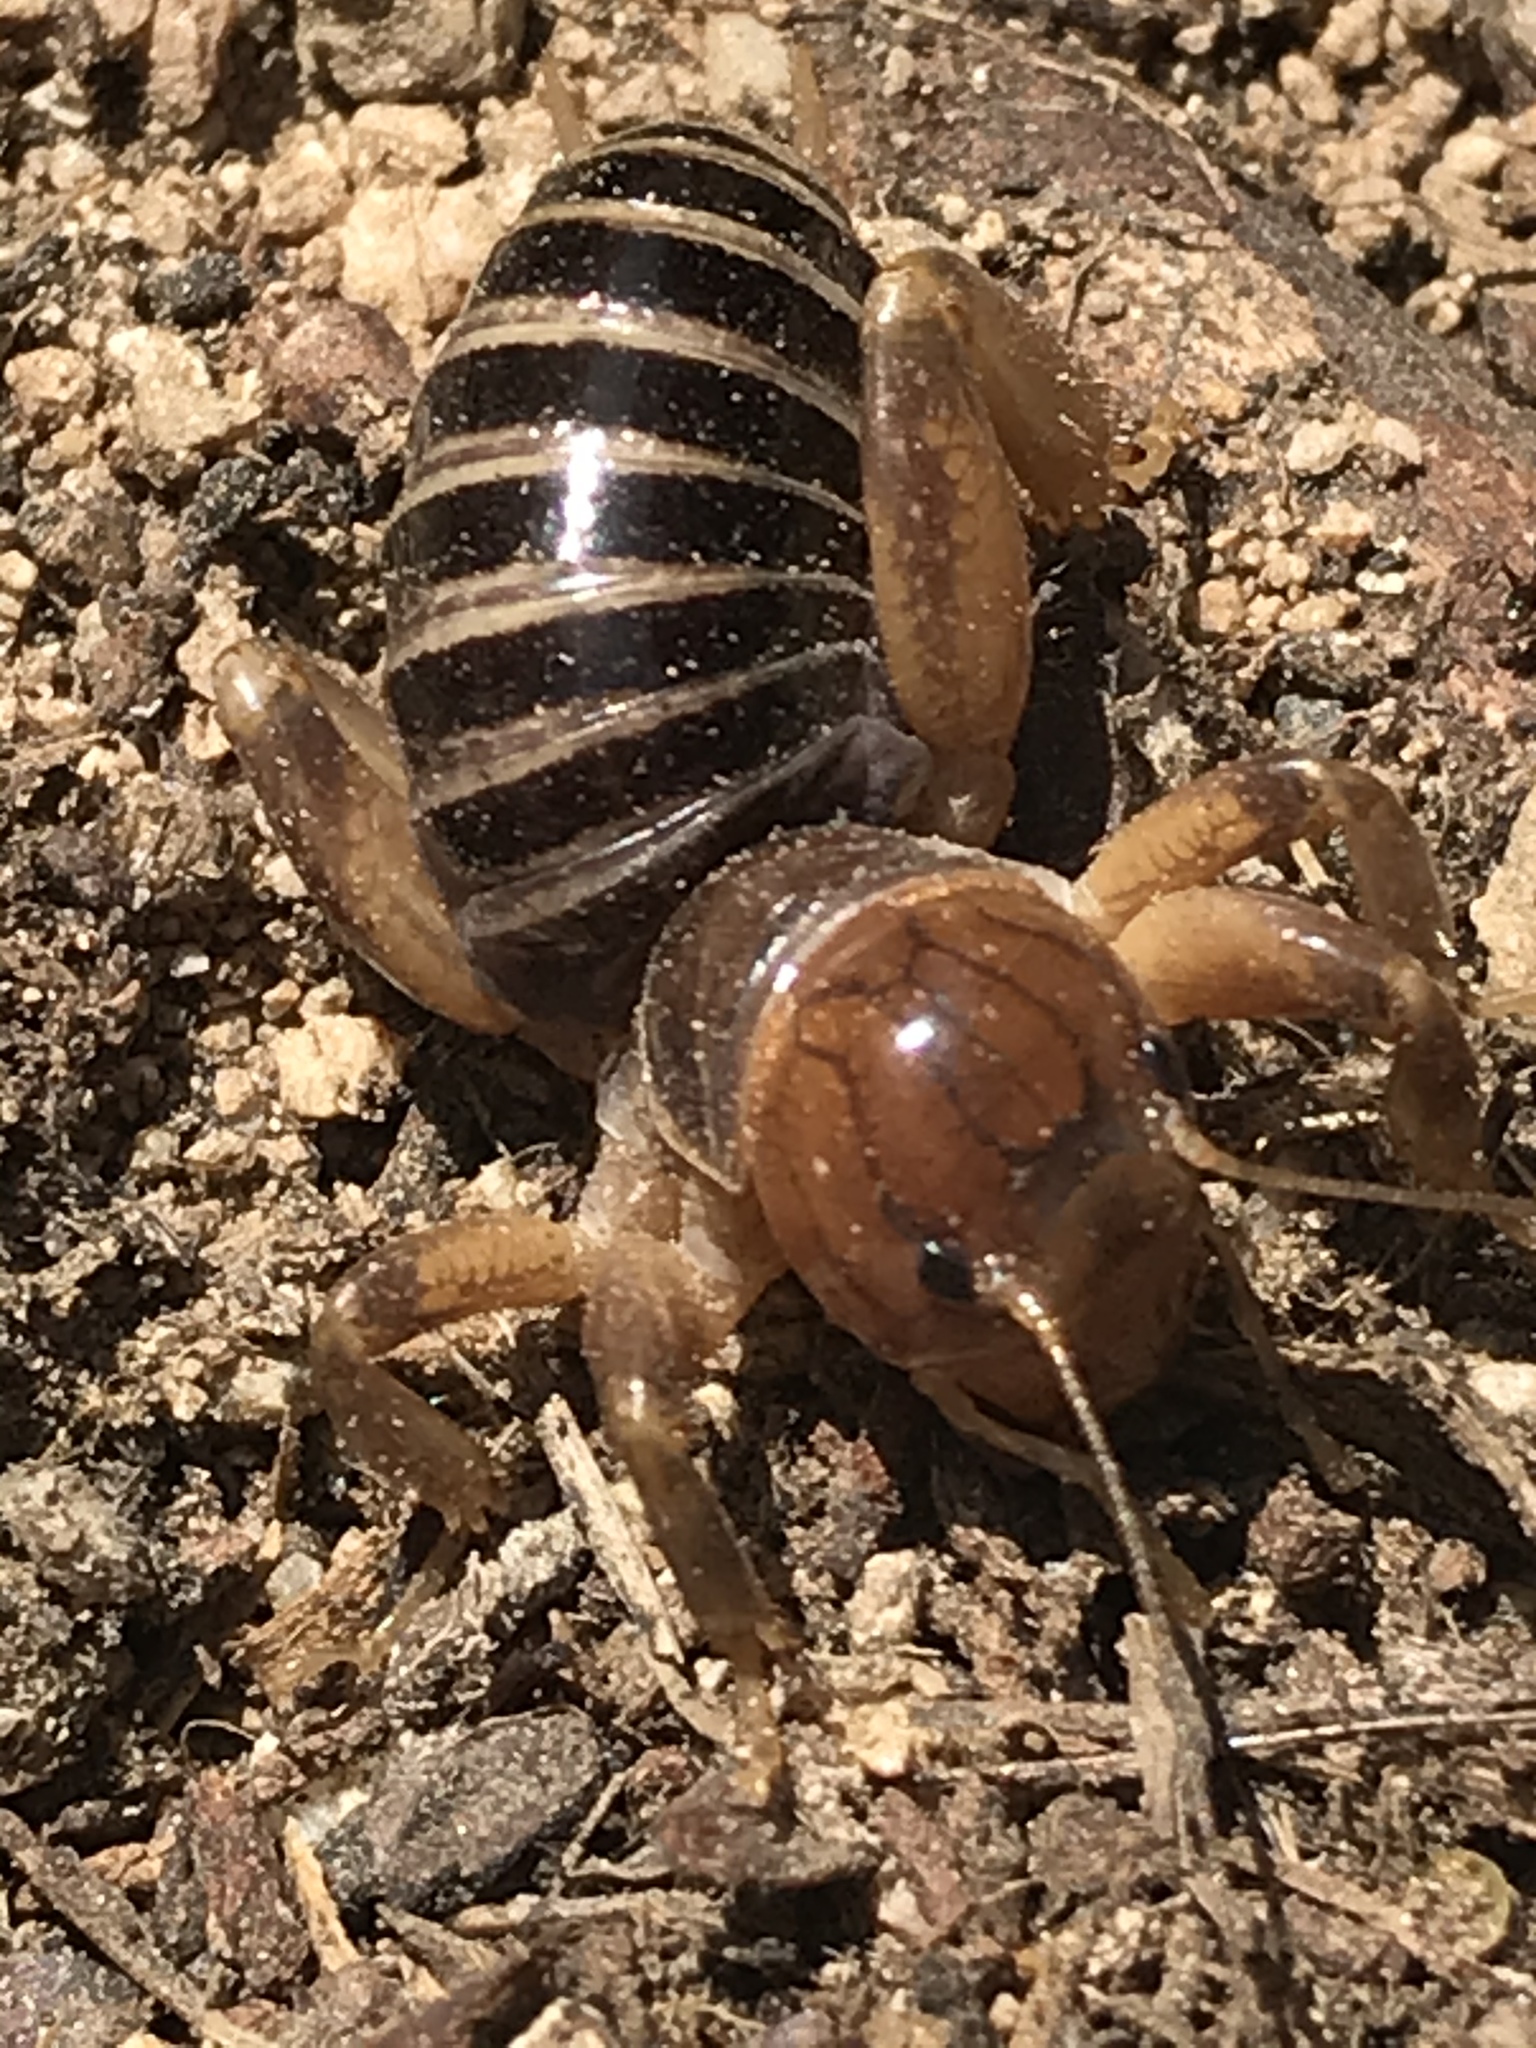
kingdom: Animalia
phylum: Arthropoda
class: Insecta
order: Orthoptera
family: Stenopelmatidae
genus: Ammopelmatus
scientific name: Ammopelmatus
